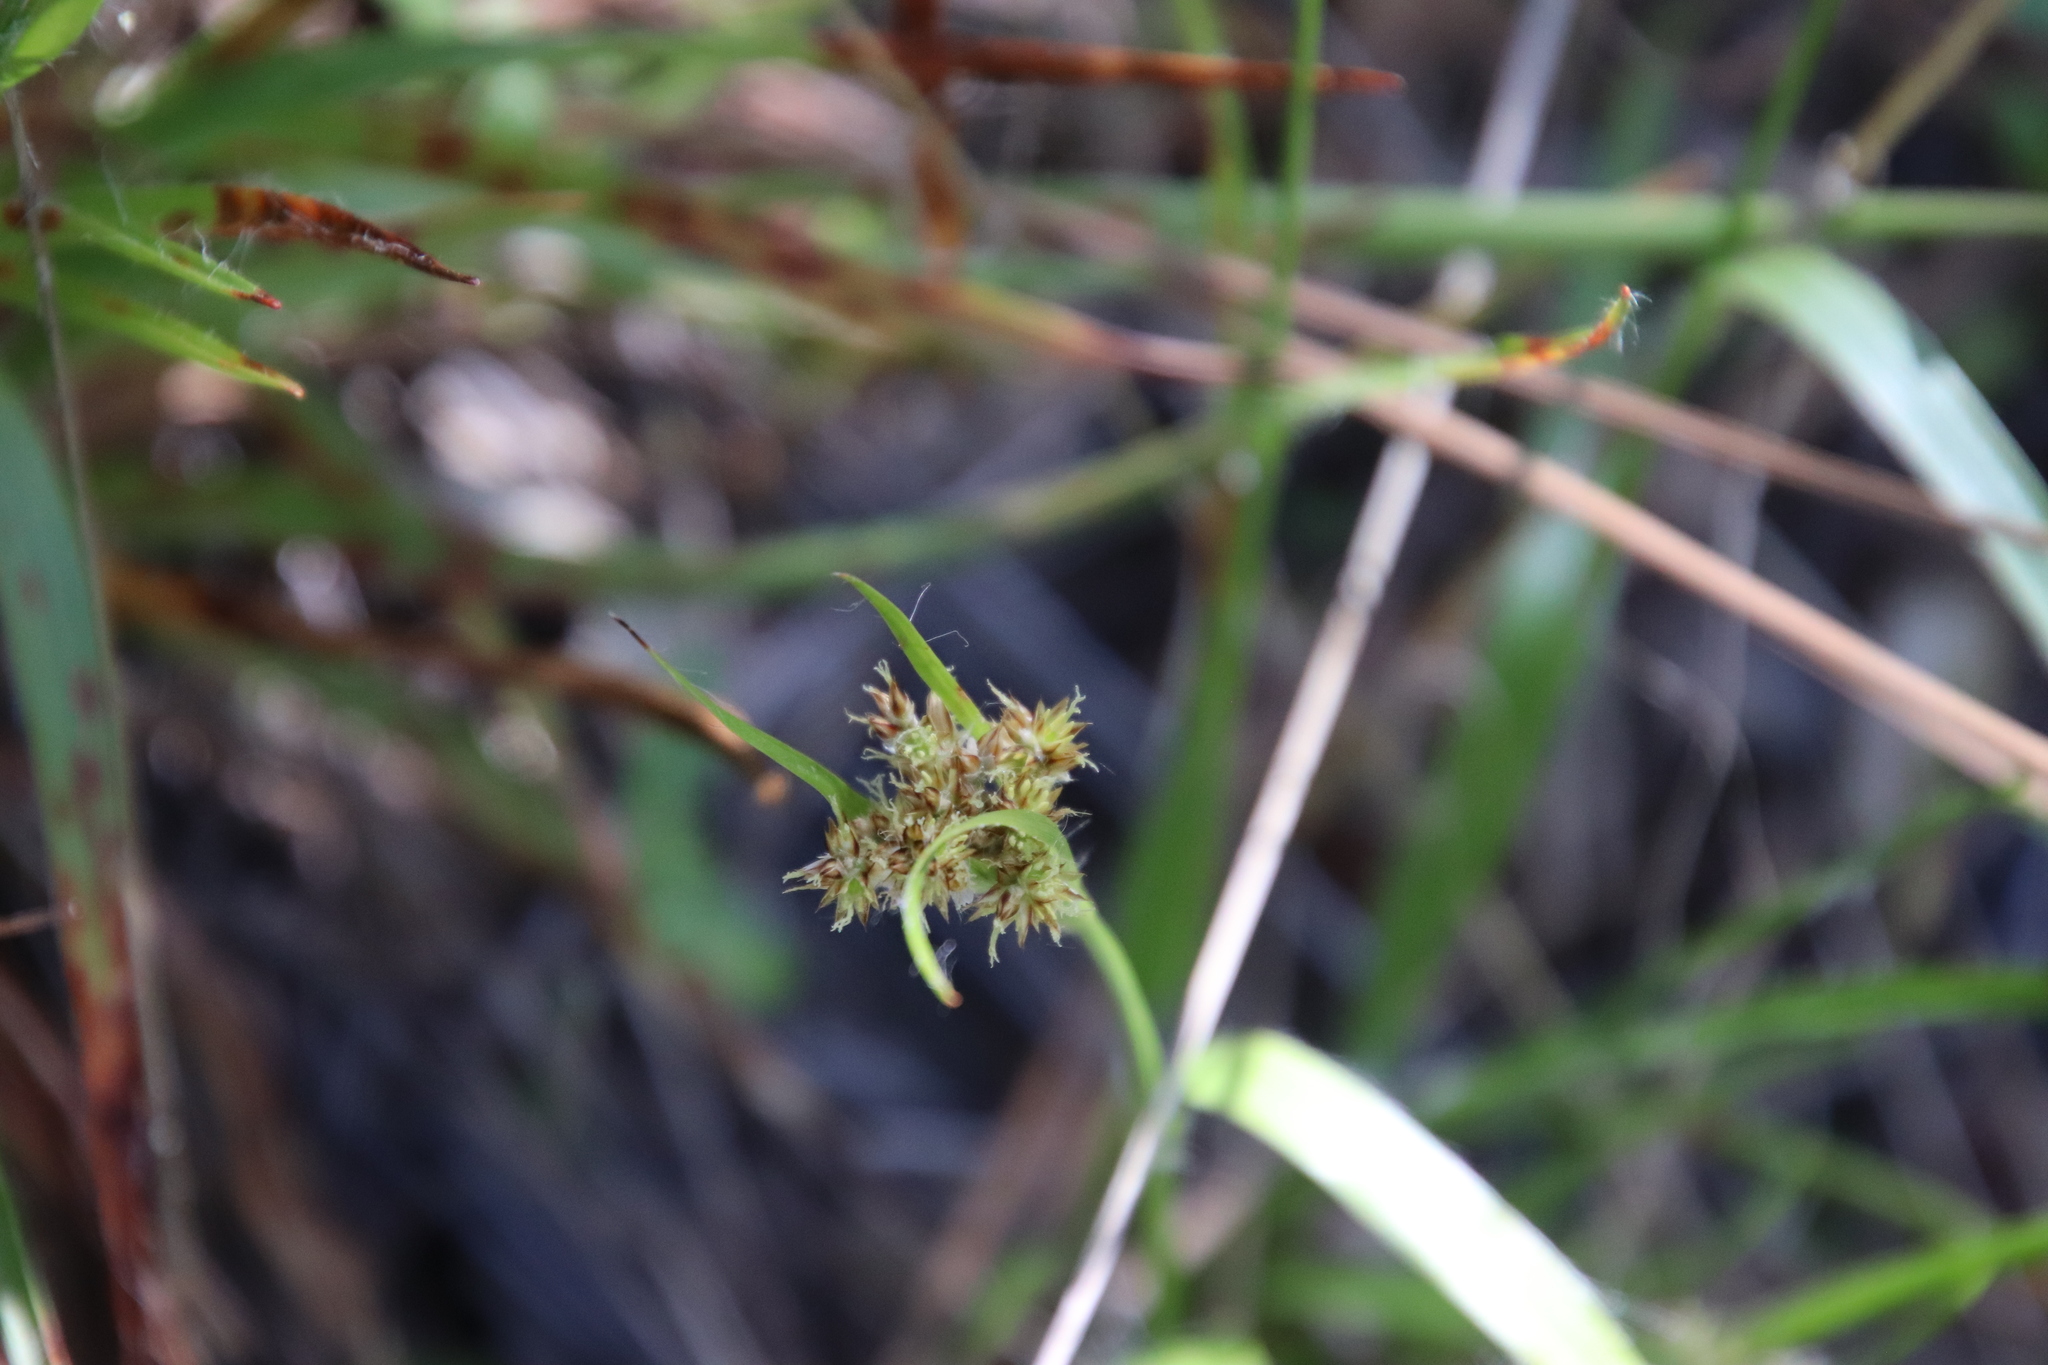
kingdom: Plantae
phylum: Tracheophyta
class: Liliopsida
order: Poales
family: Juncaceae
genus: Luzula
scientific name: Luzula comosa
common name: Pacific woodrush
